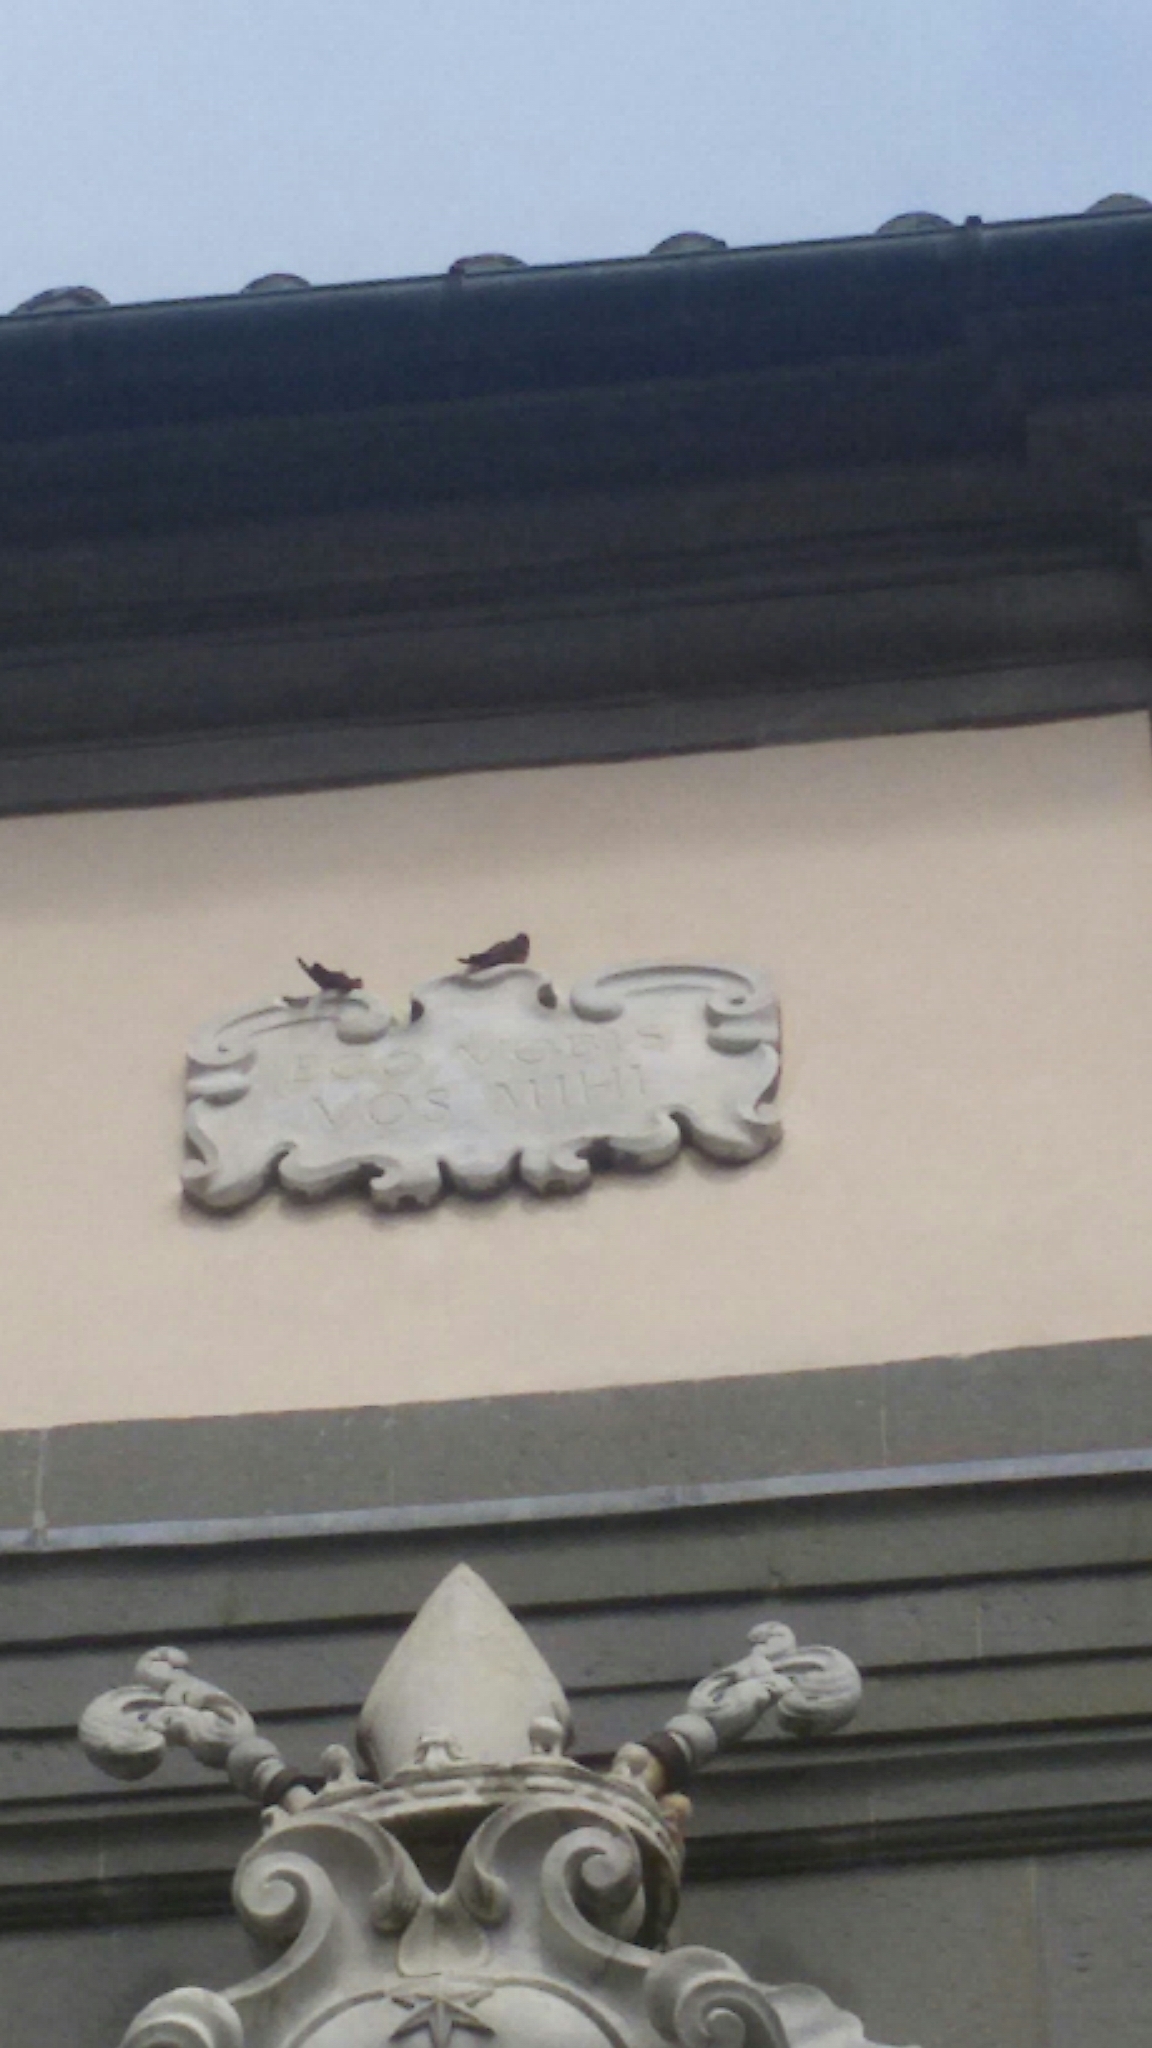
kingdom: Animalia
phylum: Chordata
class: Aves
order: Passeriformes
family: Hirundinidae
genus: Ptyonoprogne
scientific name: Ptyonoprogne rupestris
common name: Eurasian crag martin
